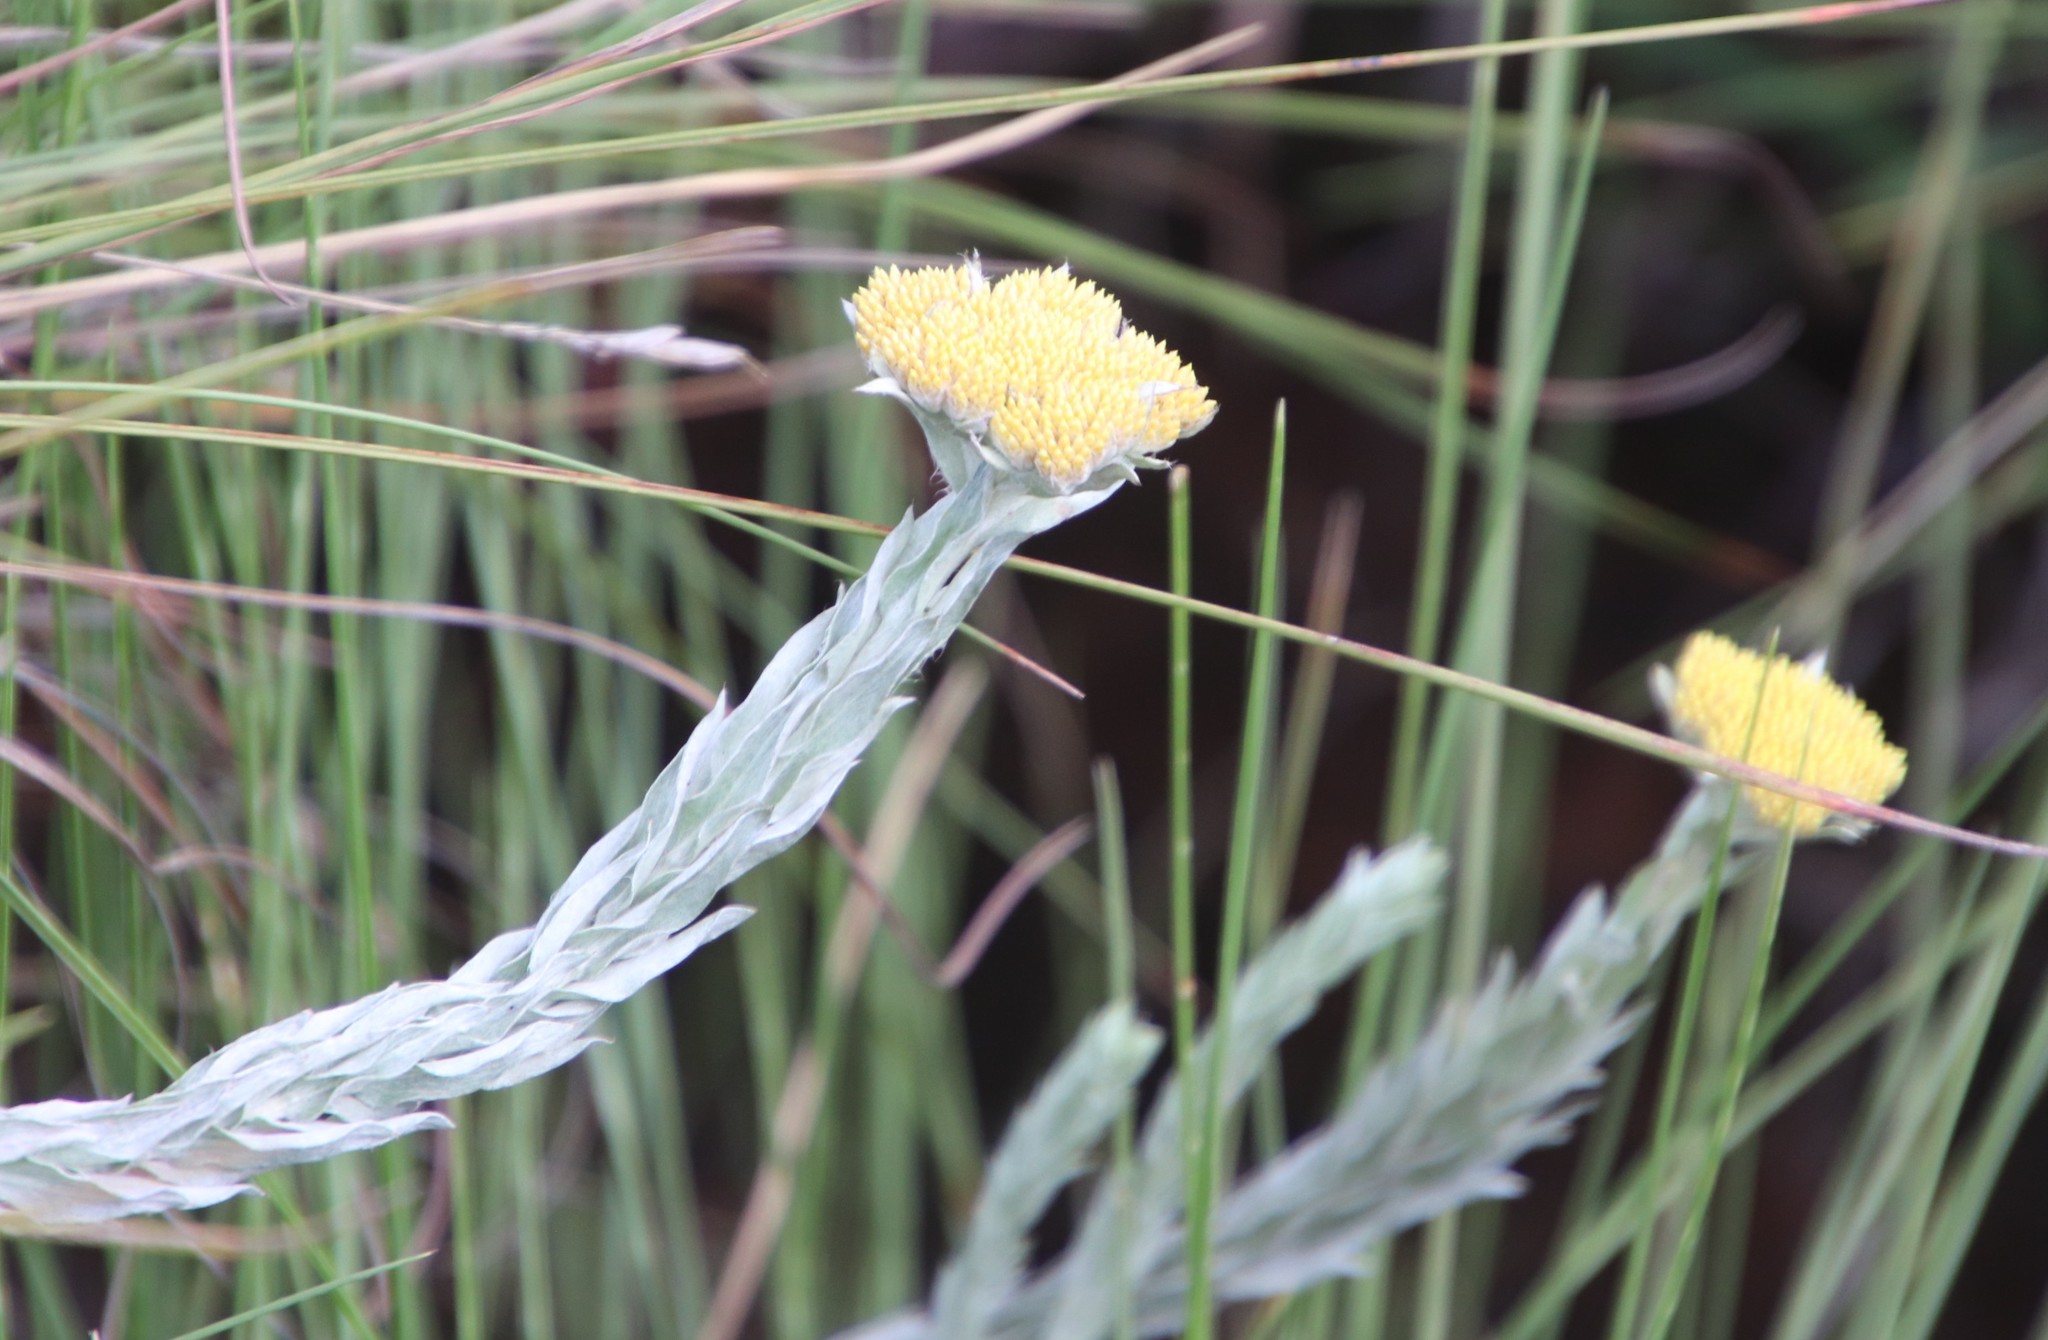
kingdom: Plantae
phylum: Tracheophyta
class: Magnoliopsida
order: Asterales
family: Asteraceae
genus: Helichrysum
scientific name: Helichrysum glomeratum
